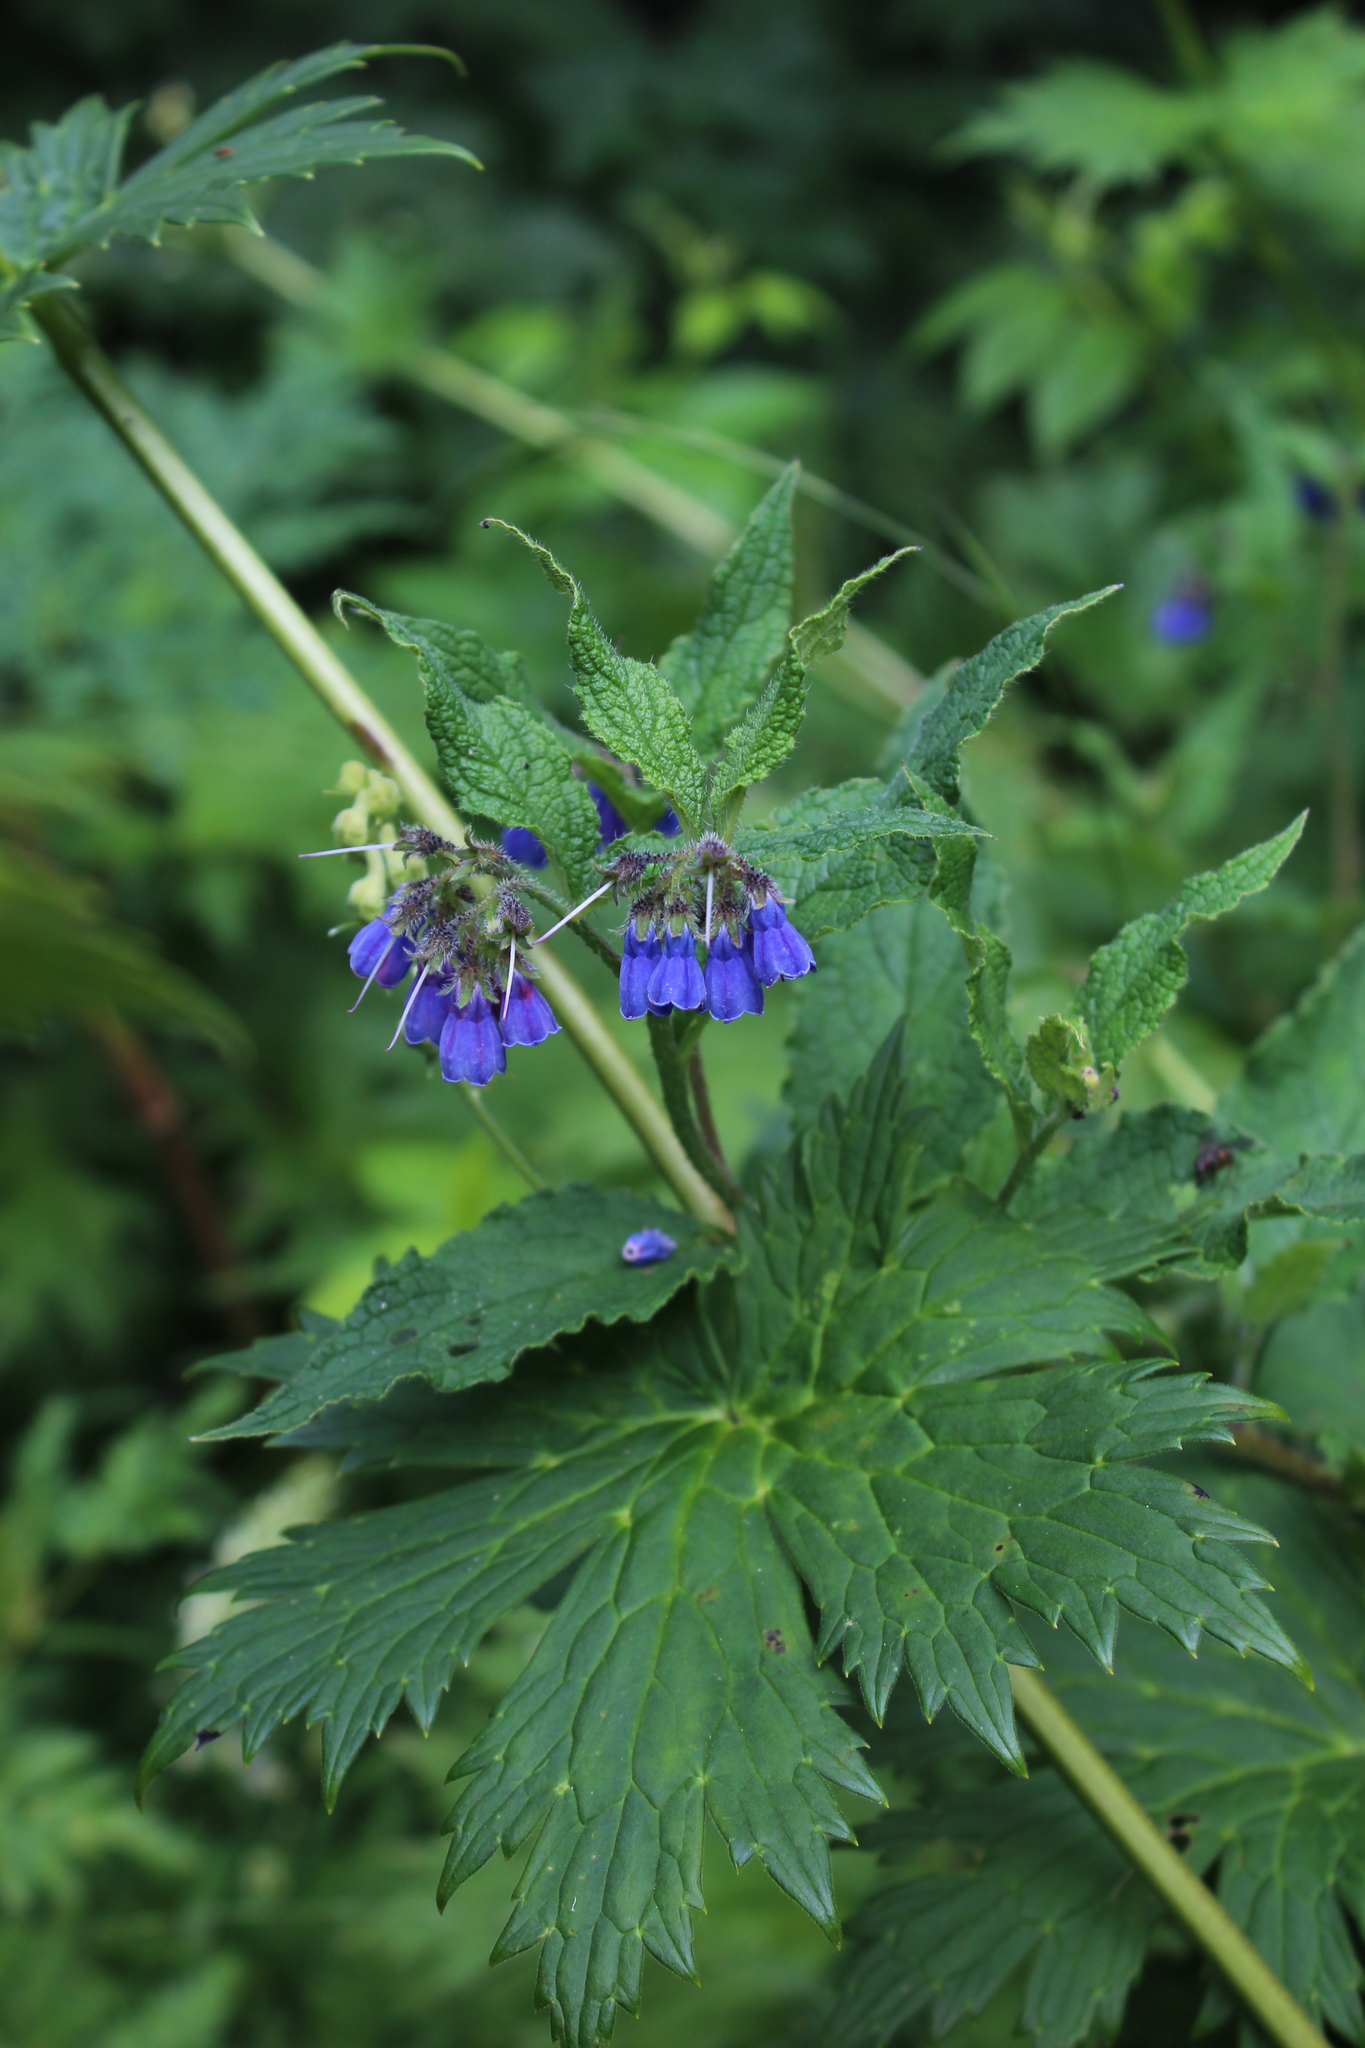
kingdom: Plantae
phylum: Tracheophyta
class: Magnoliopsida
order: Boraginales
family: Boraginaceae
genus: Symphytum
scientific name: Symphytum asperum
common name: Prickly comfrey
